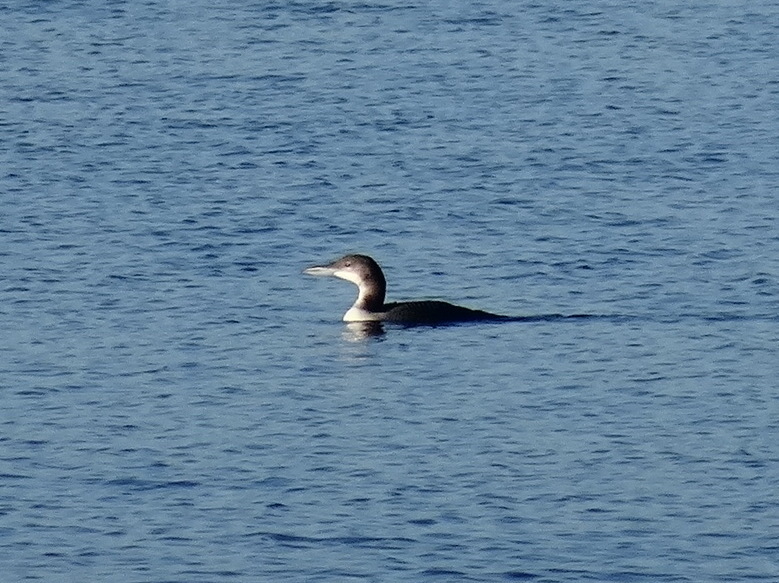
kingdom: Animalia
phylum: Chordata
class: Aves
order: Gaviiformes
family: Gaviidae
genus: Gavia
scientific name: Gavia immer
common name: Common loon
